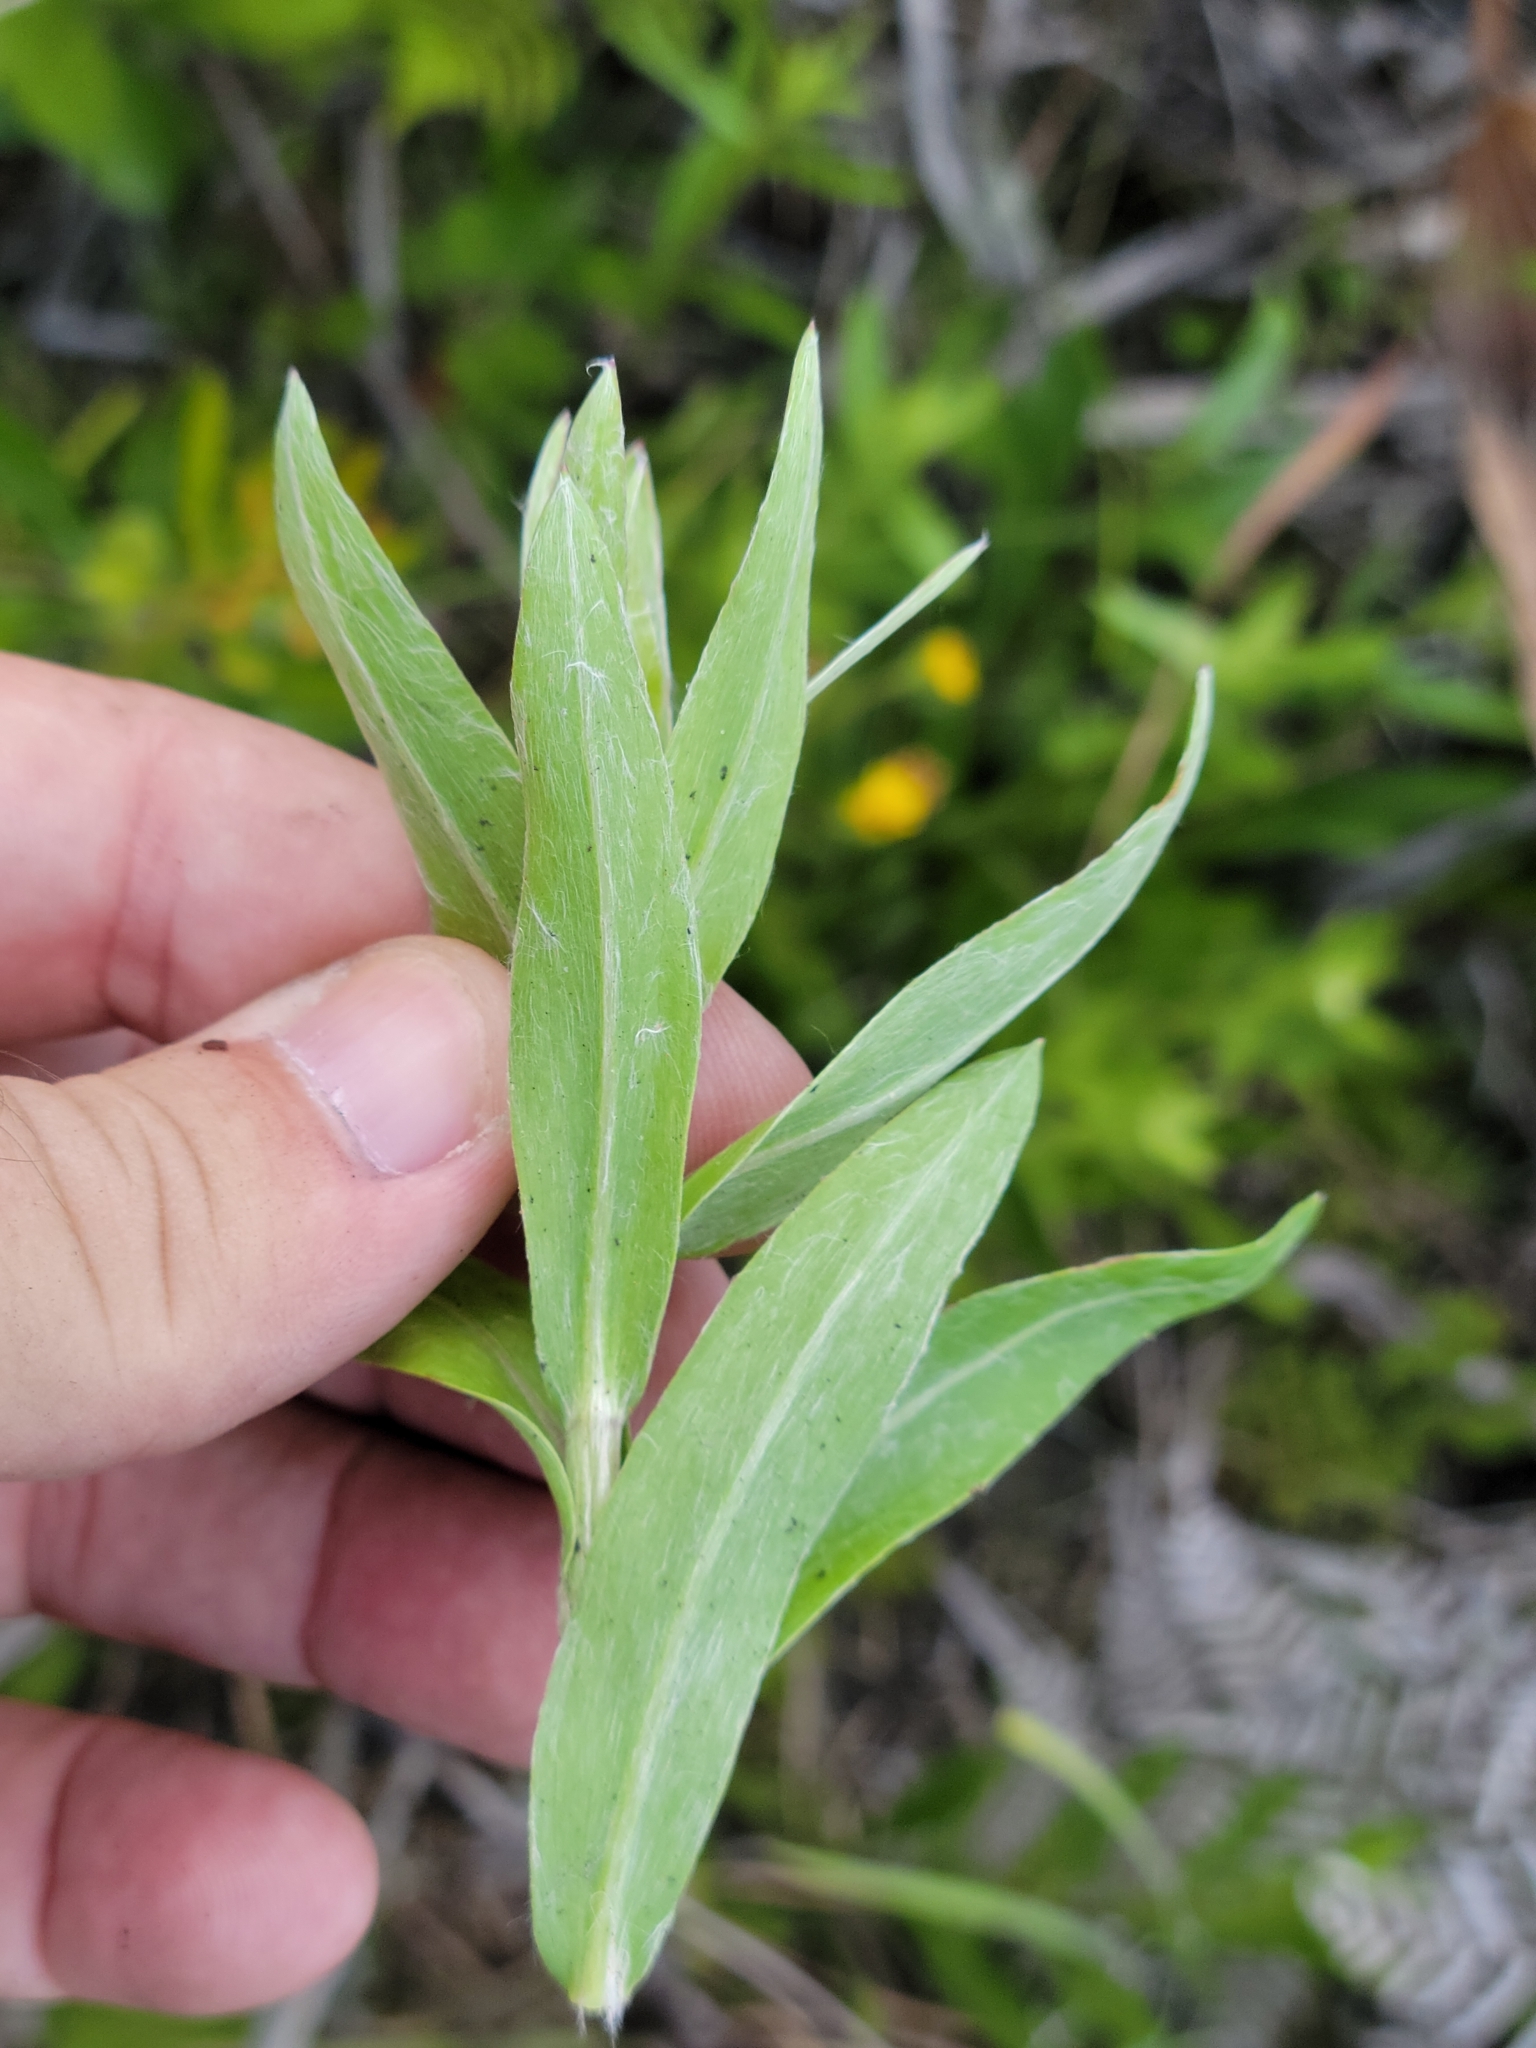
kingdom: Plantae
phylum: Tracheophyta
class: Magnoliopsida
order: Asterales
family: Asteraceae
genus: Chrysopsis
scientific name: Chrysopsis mariana
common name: Maryland golden-aster
